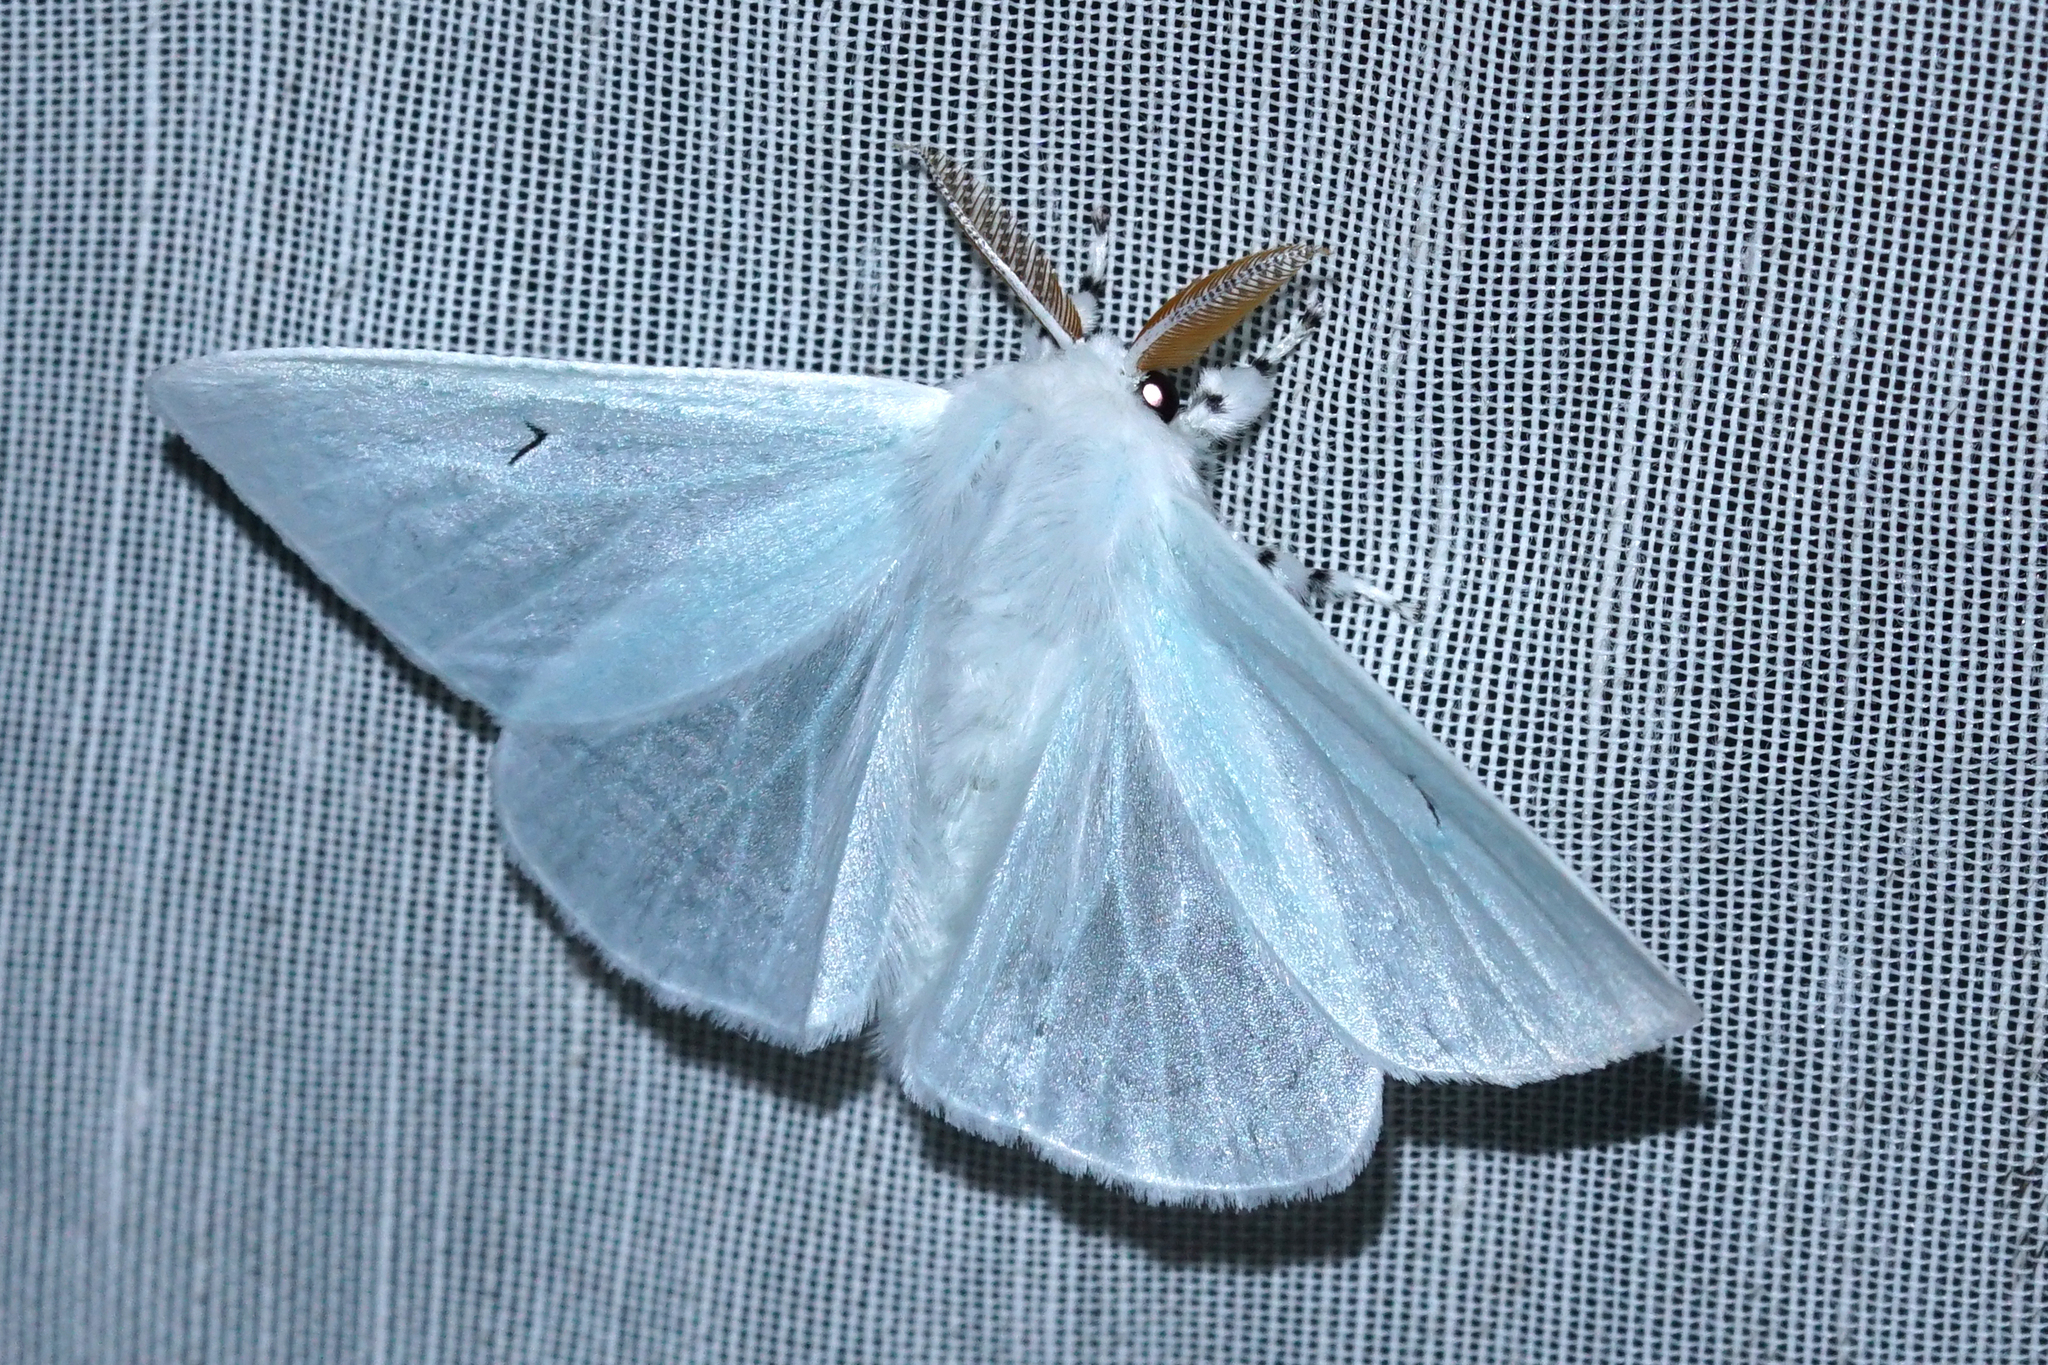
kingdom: Animalia
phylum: Arthropoda
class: Insecta
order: Lepidoptera
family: Erebidae
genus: Arctornis
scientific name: Arctornis l-nigrum
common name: Black v moth
